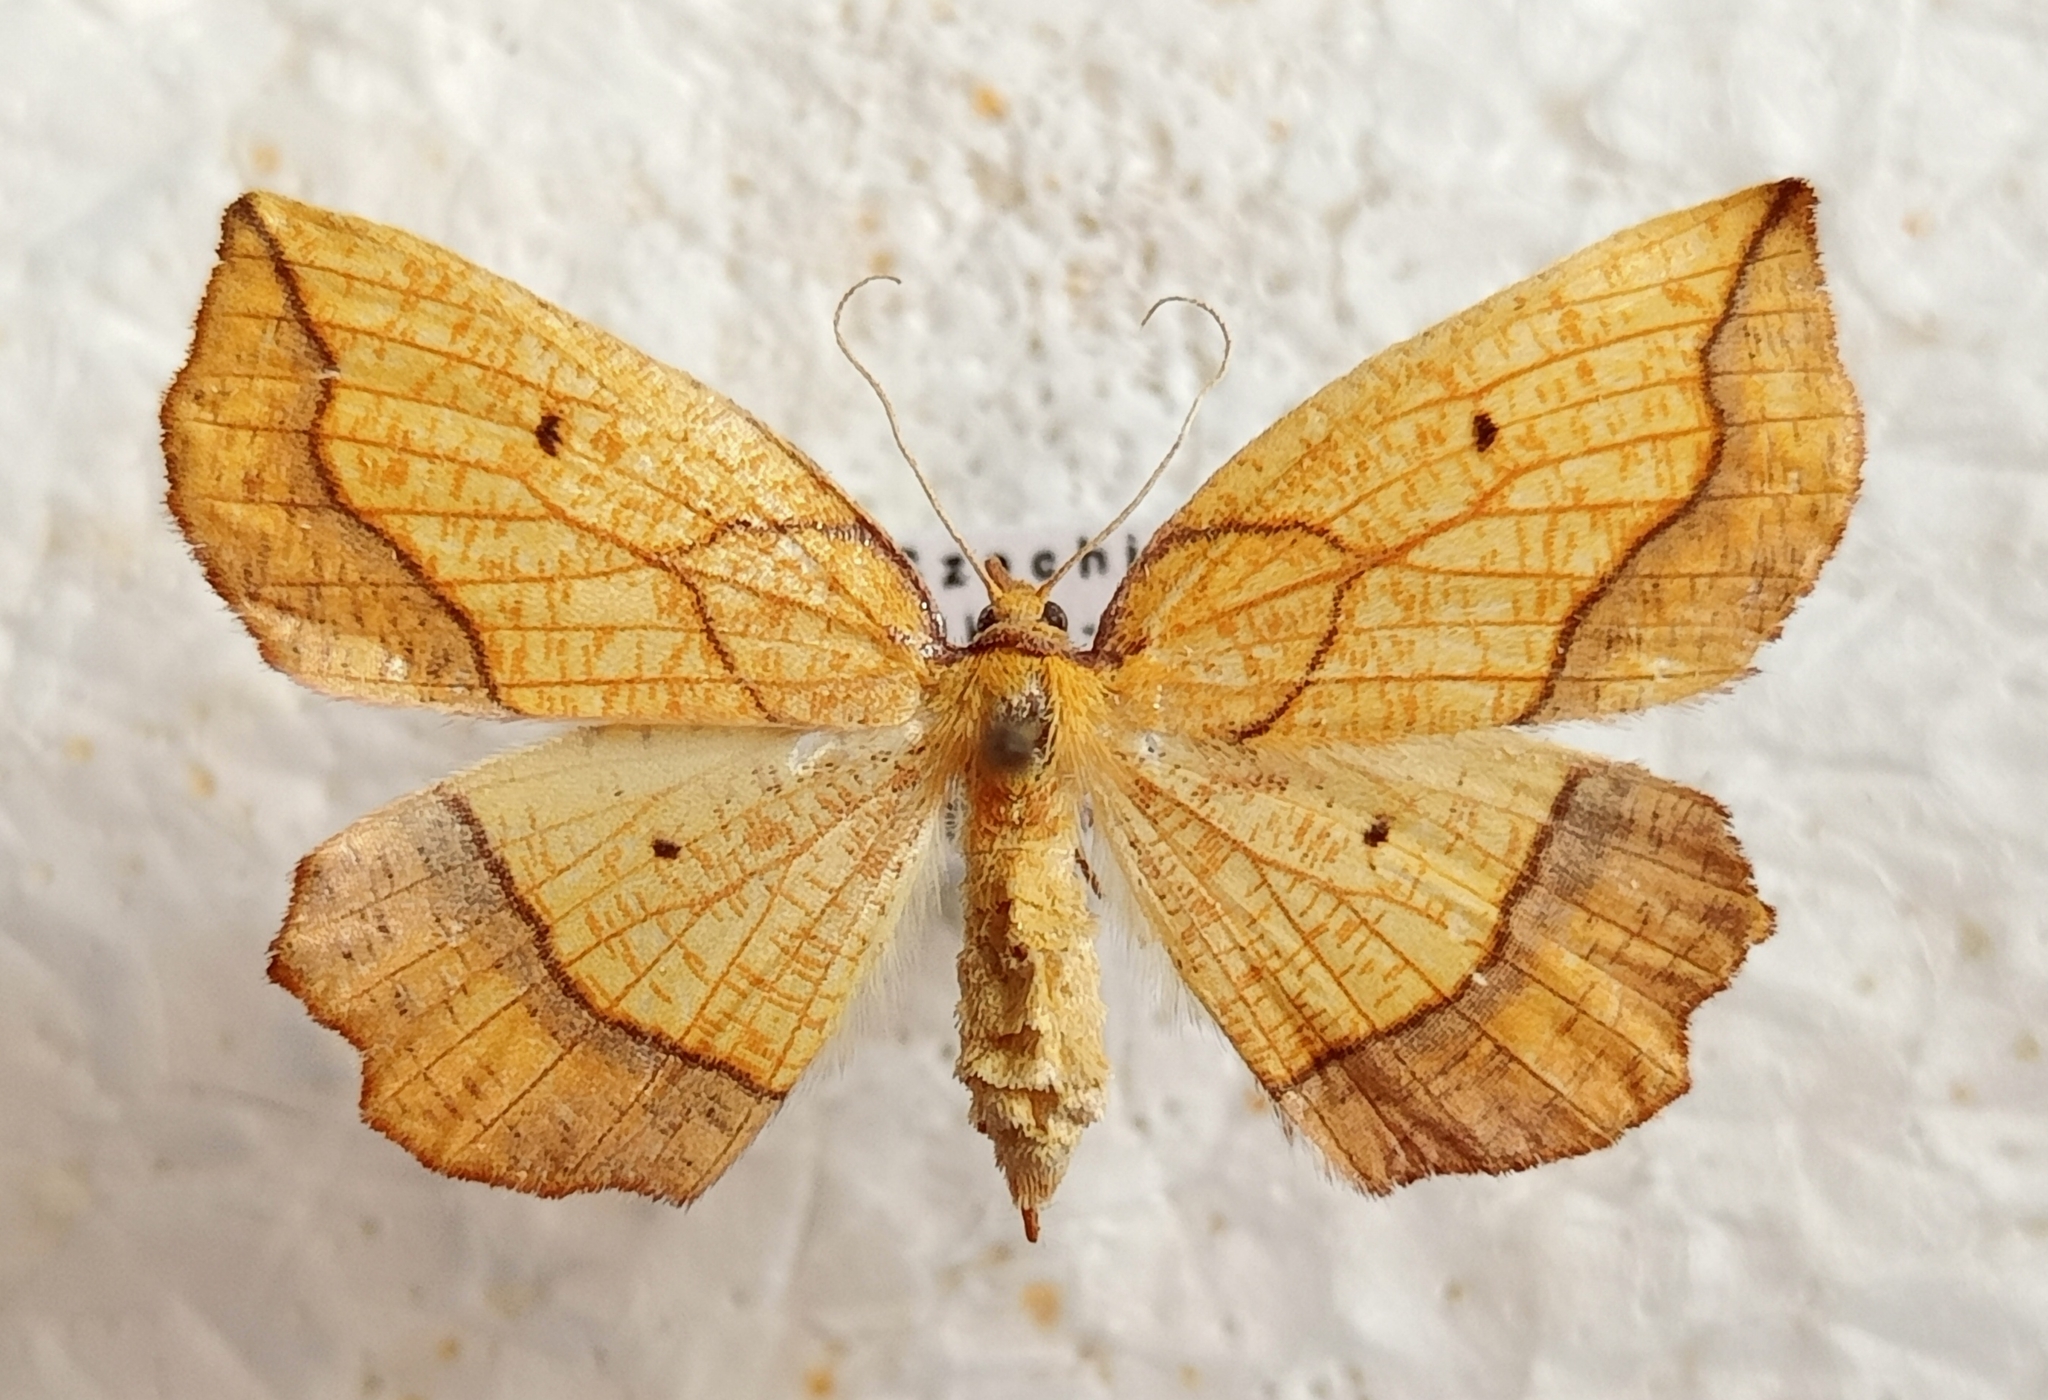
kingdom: Animalia
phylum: Arthropoda
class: Insecta
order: Lepidoptera
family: Geometridae
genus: Epione
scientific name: Epione repandaria
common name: Bordered beauty
